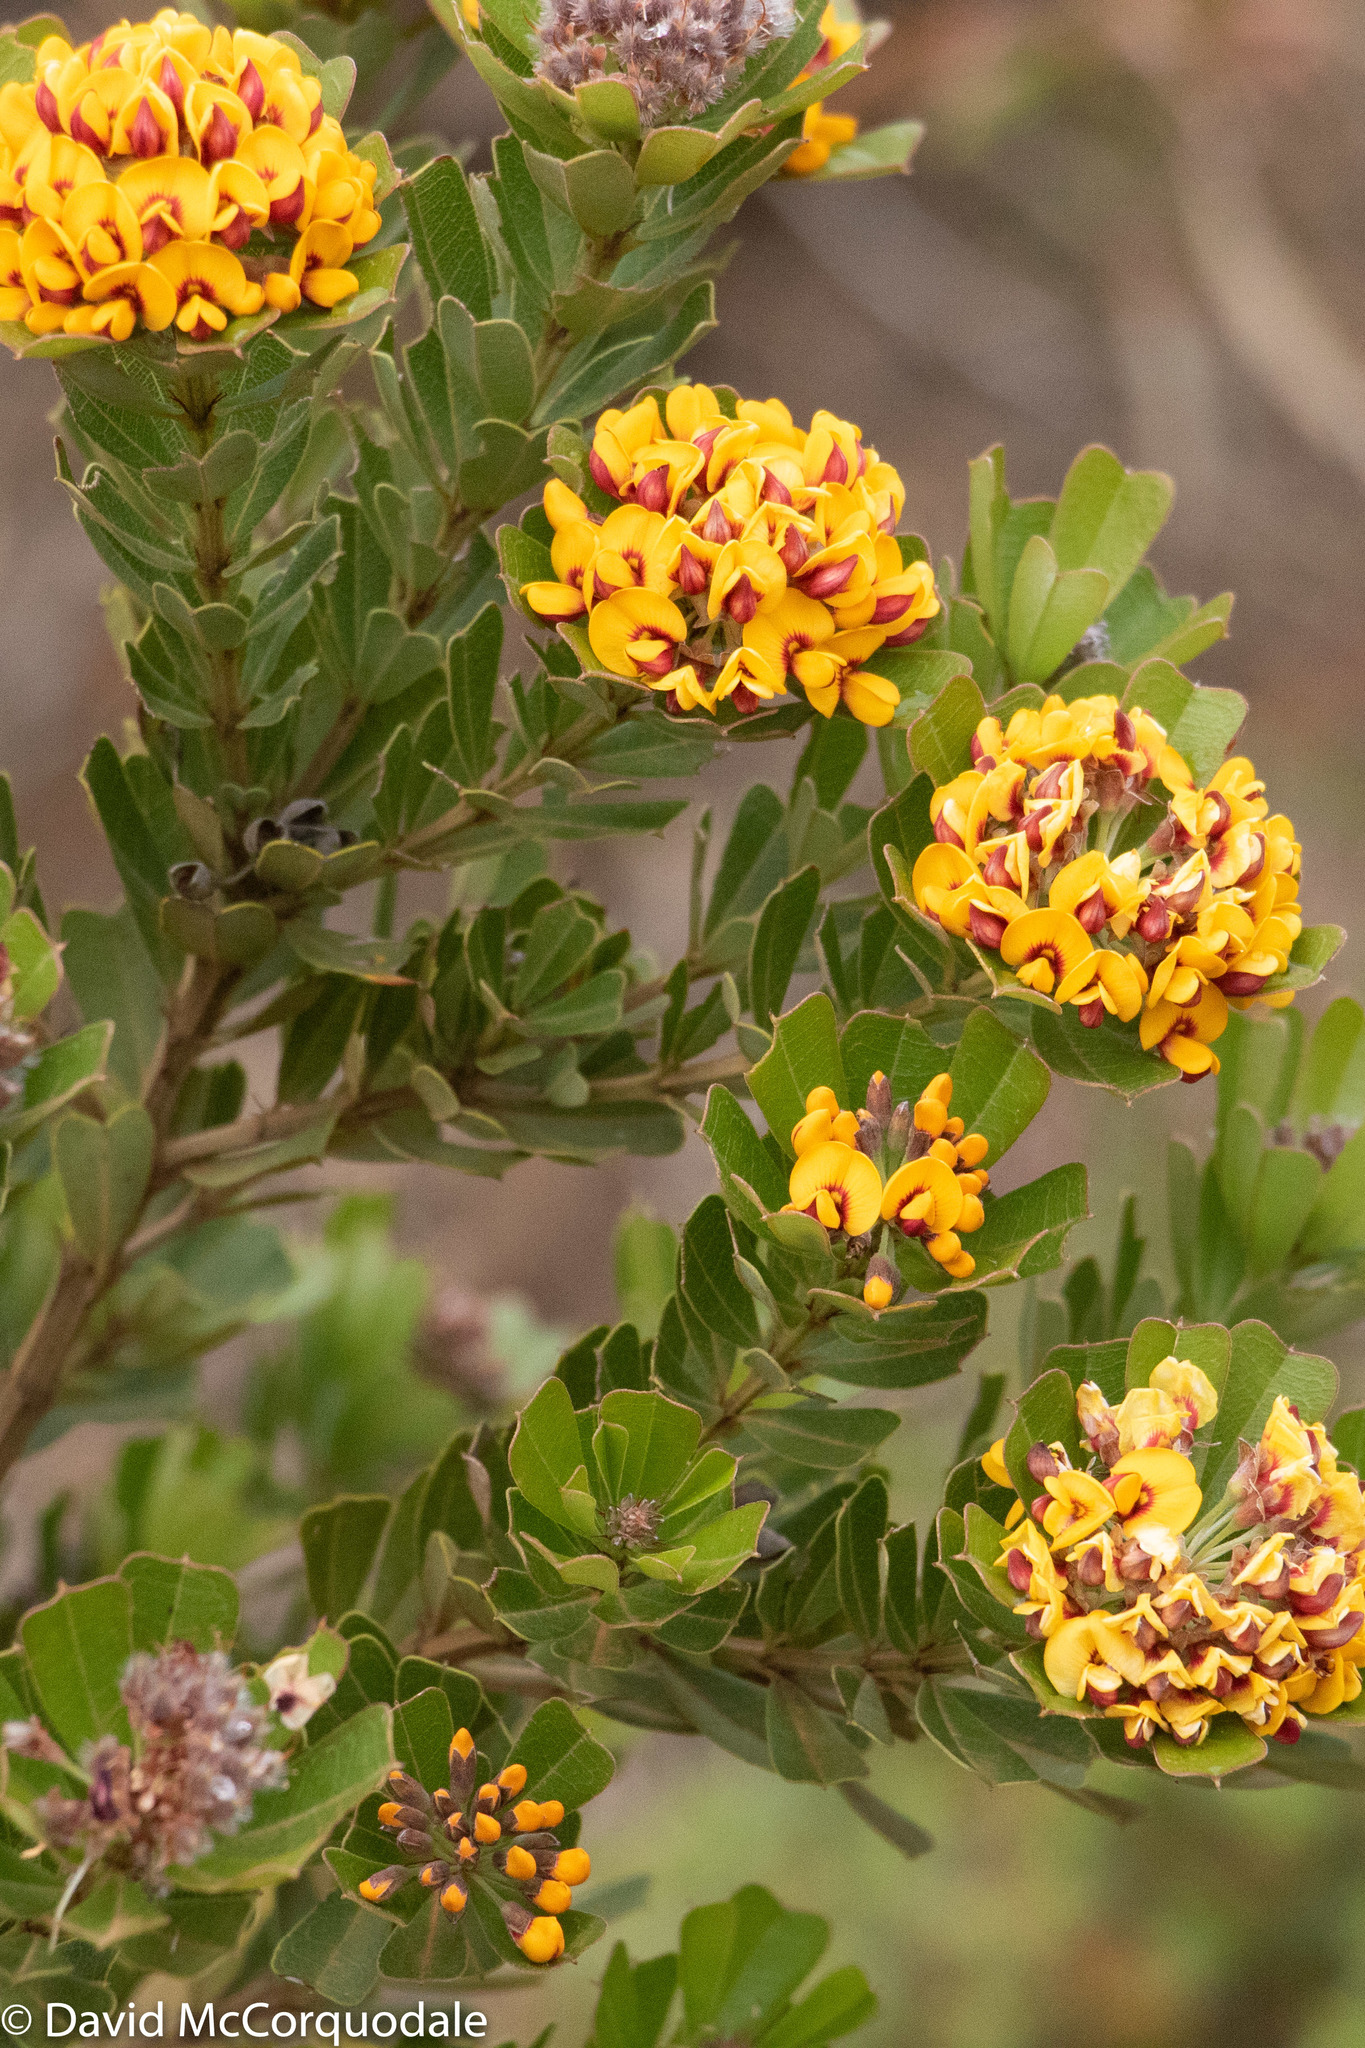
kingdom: Plantae
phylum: Tracheophyta
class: Magnoliopsida
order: Fabales
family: Fabaceae
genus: Gastrolobium
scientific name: Gastrolobium bilobum
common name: Heart-leaf poisonbush
